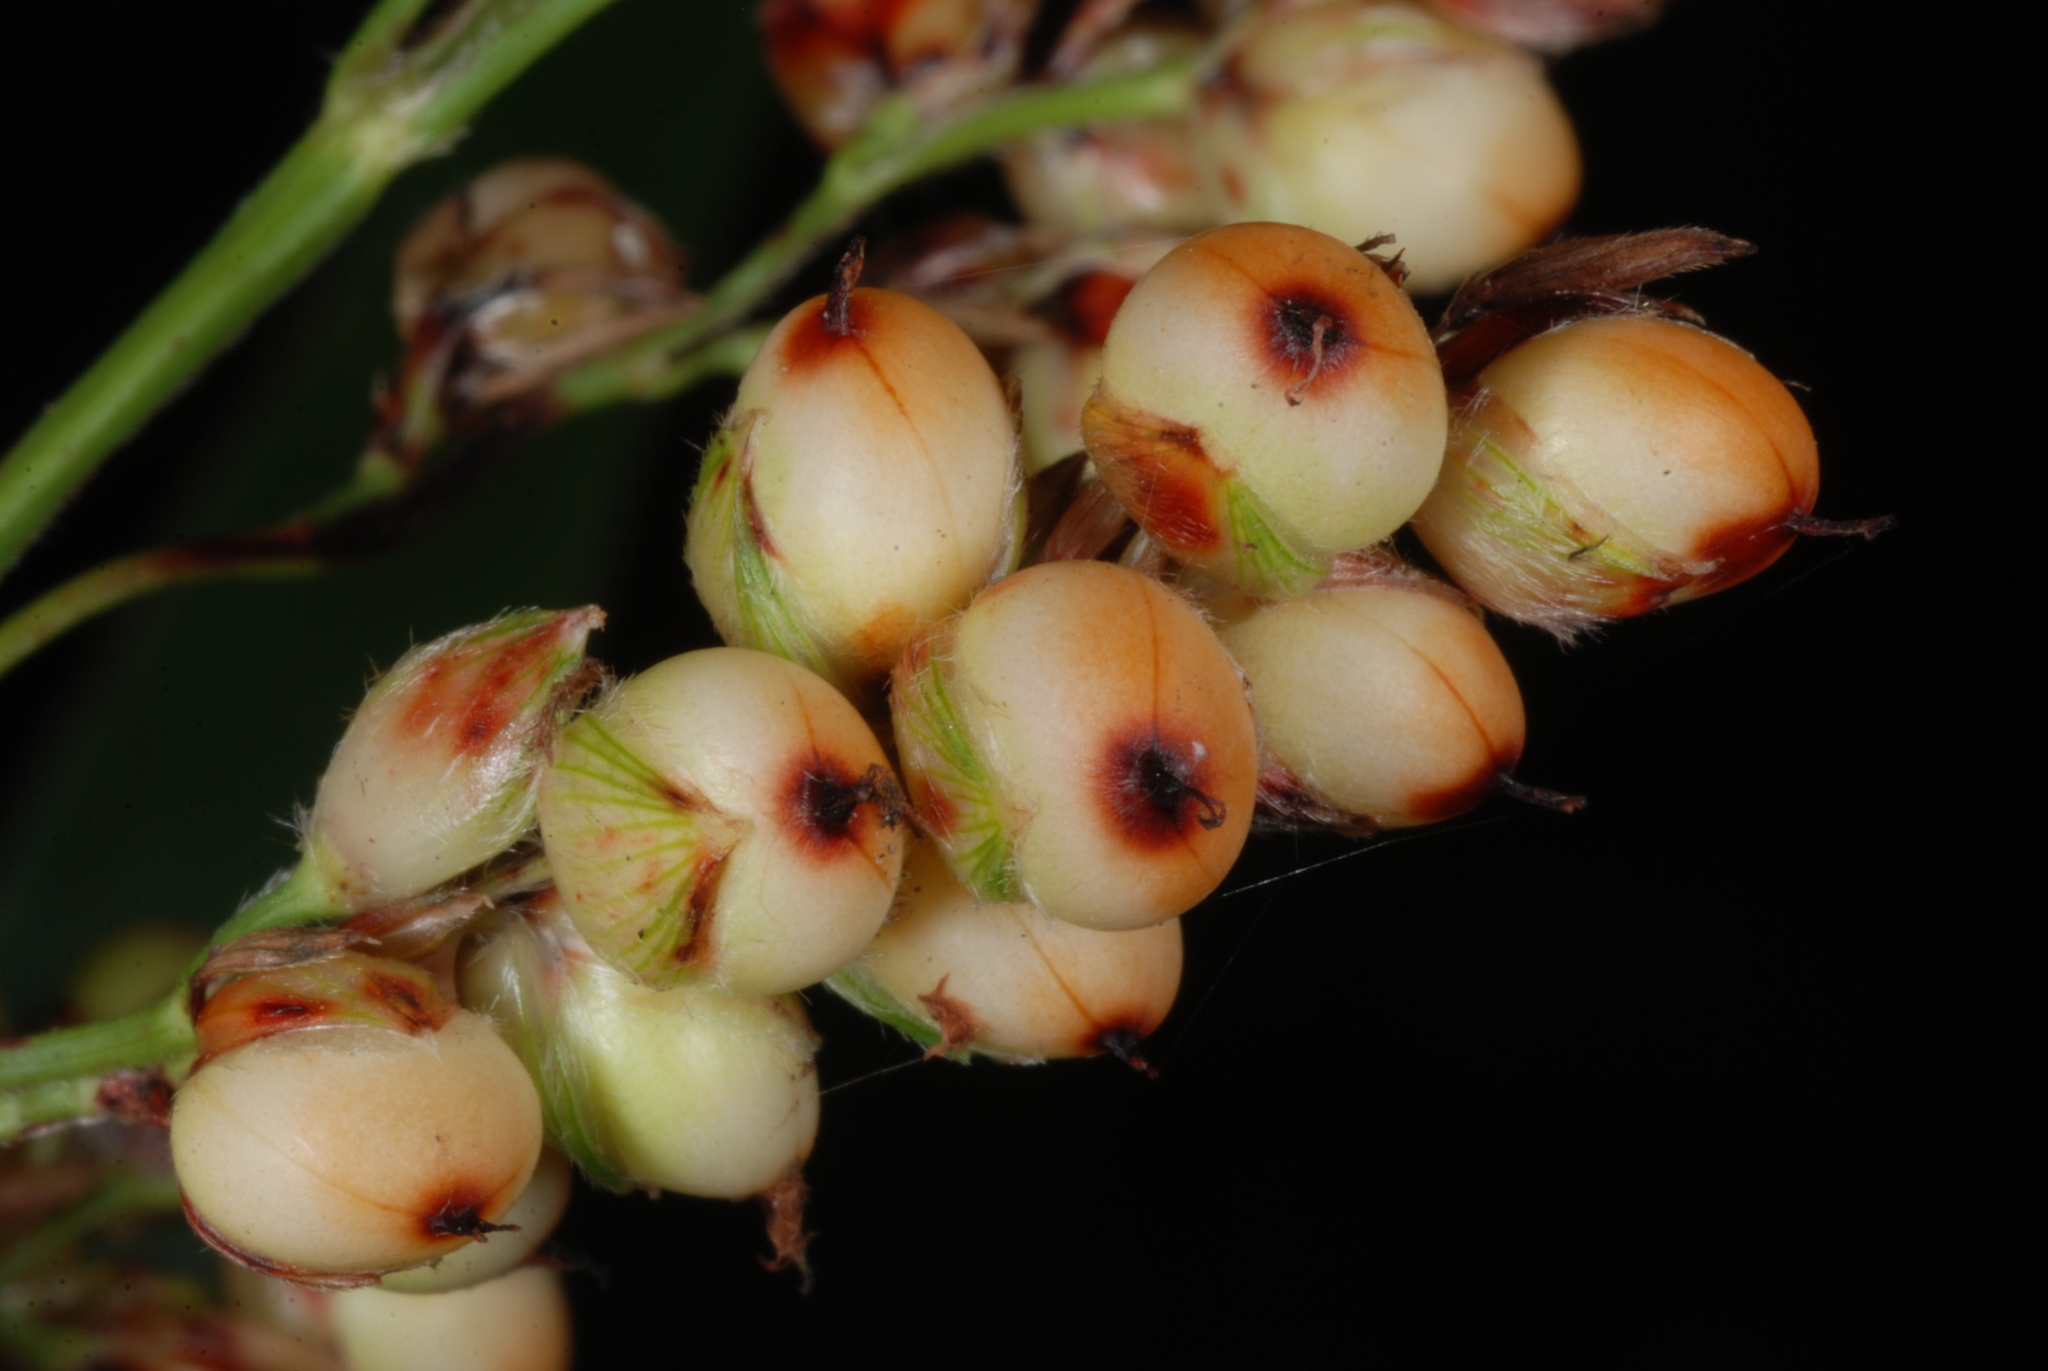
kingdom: Plantae
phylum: Tracheophyta
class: Liliopsida
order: Poales
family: Poaceae
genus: Sorghum
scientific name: Sorghum bicolor
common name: Sorghum
